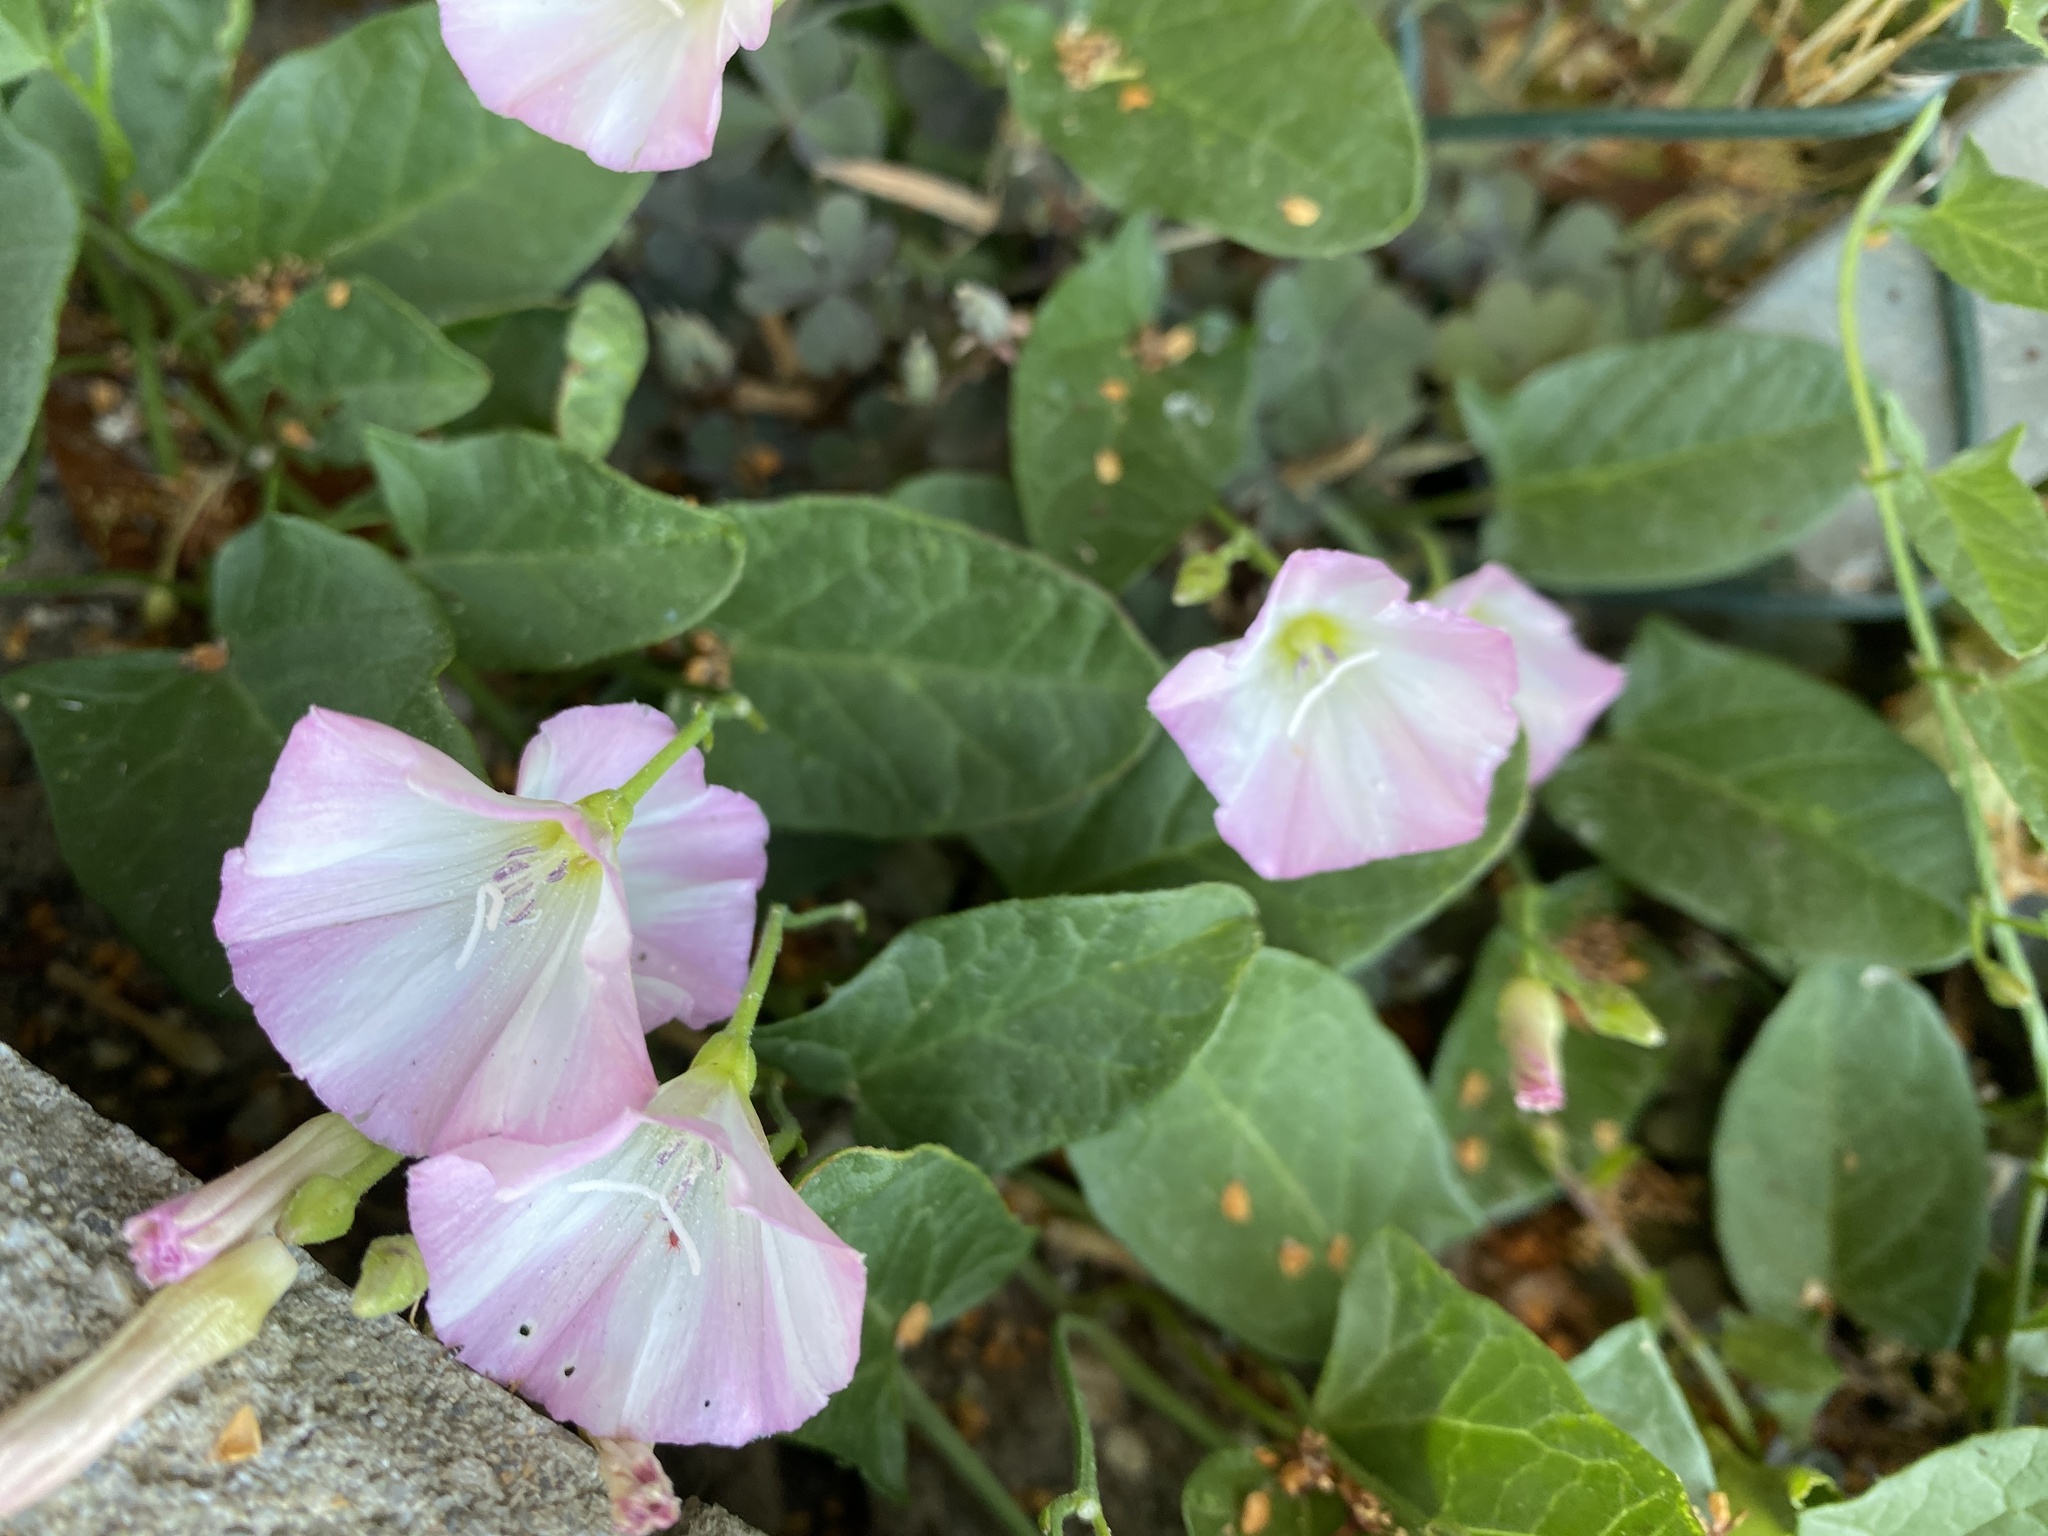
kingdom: Plantae
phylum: Tracheophyta
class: Magnoliopsida
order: Solanales
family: Convolvulaceae
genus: Convolvulus
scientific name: Convolvulus arvensis
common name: Field bindweed
